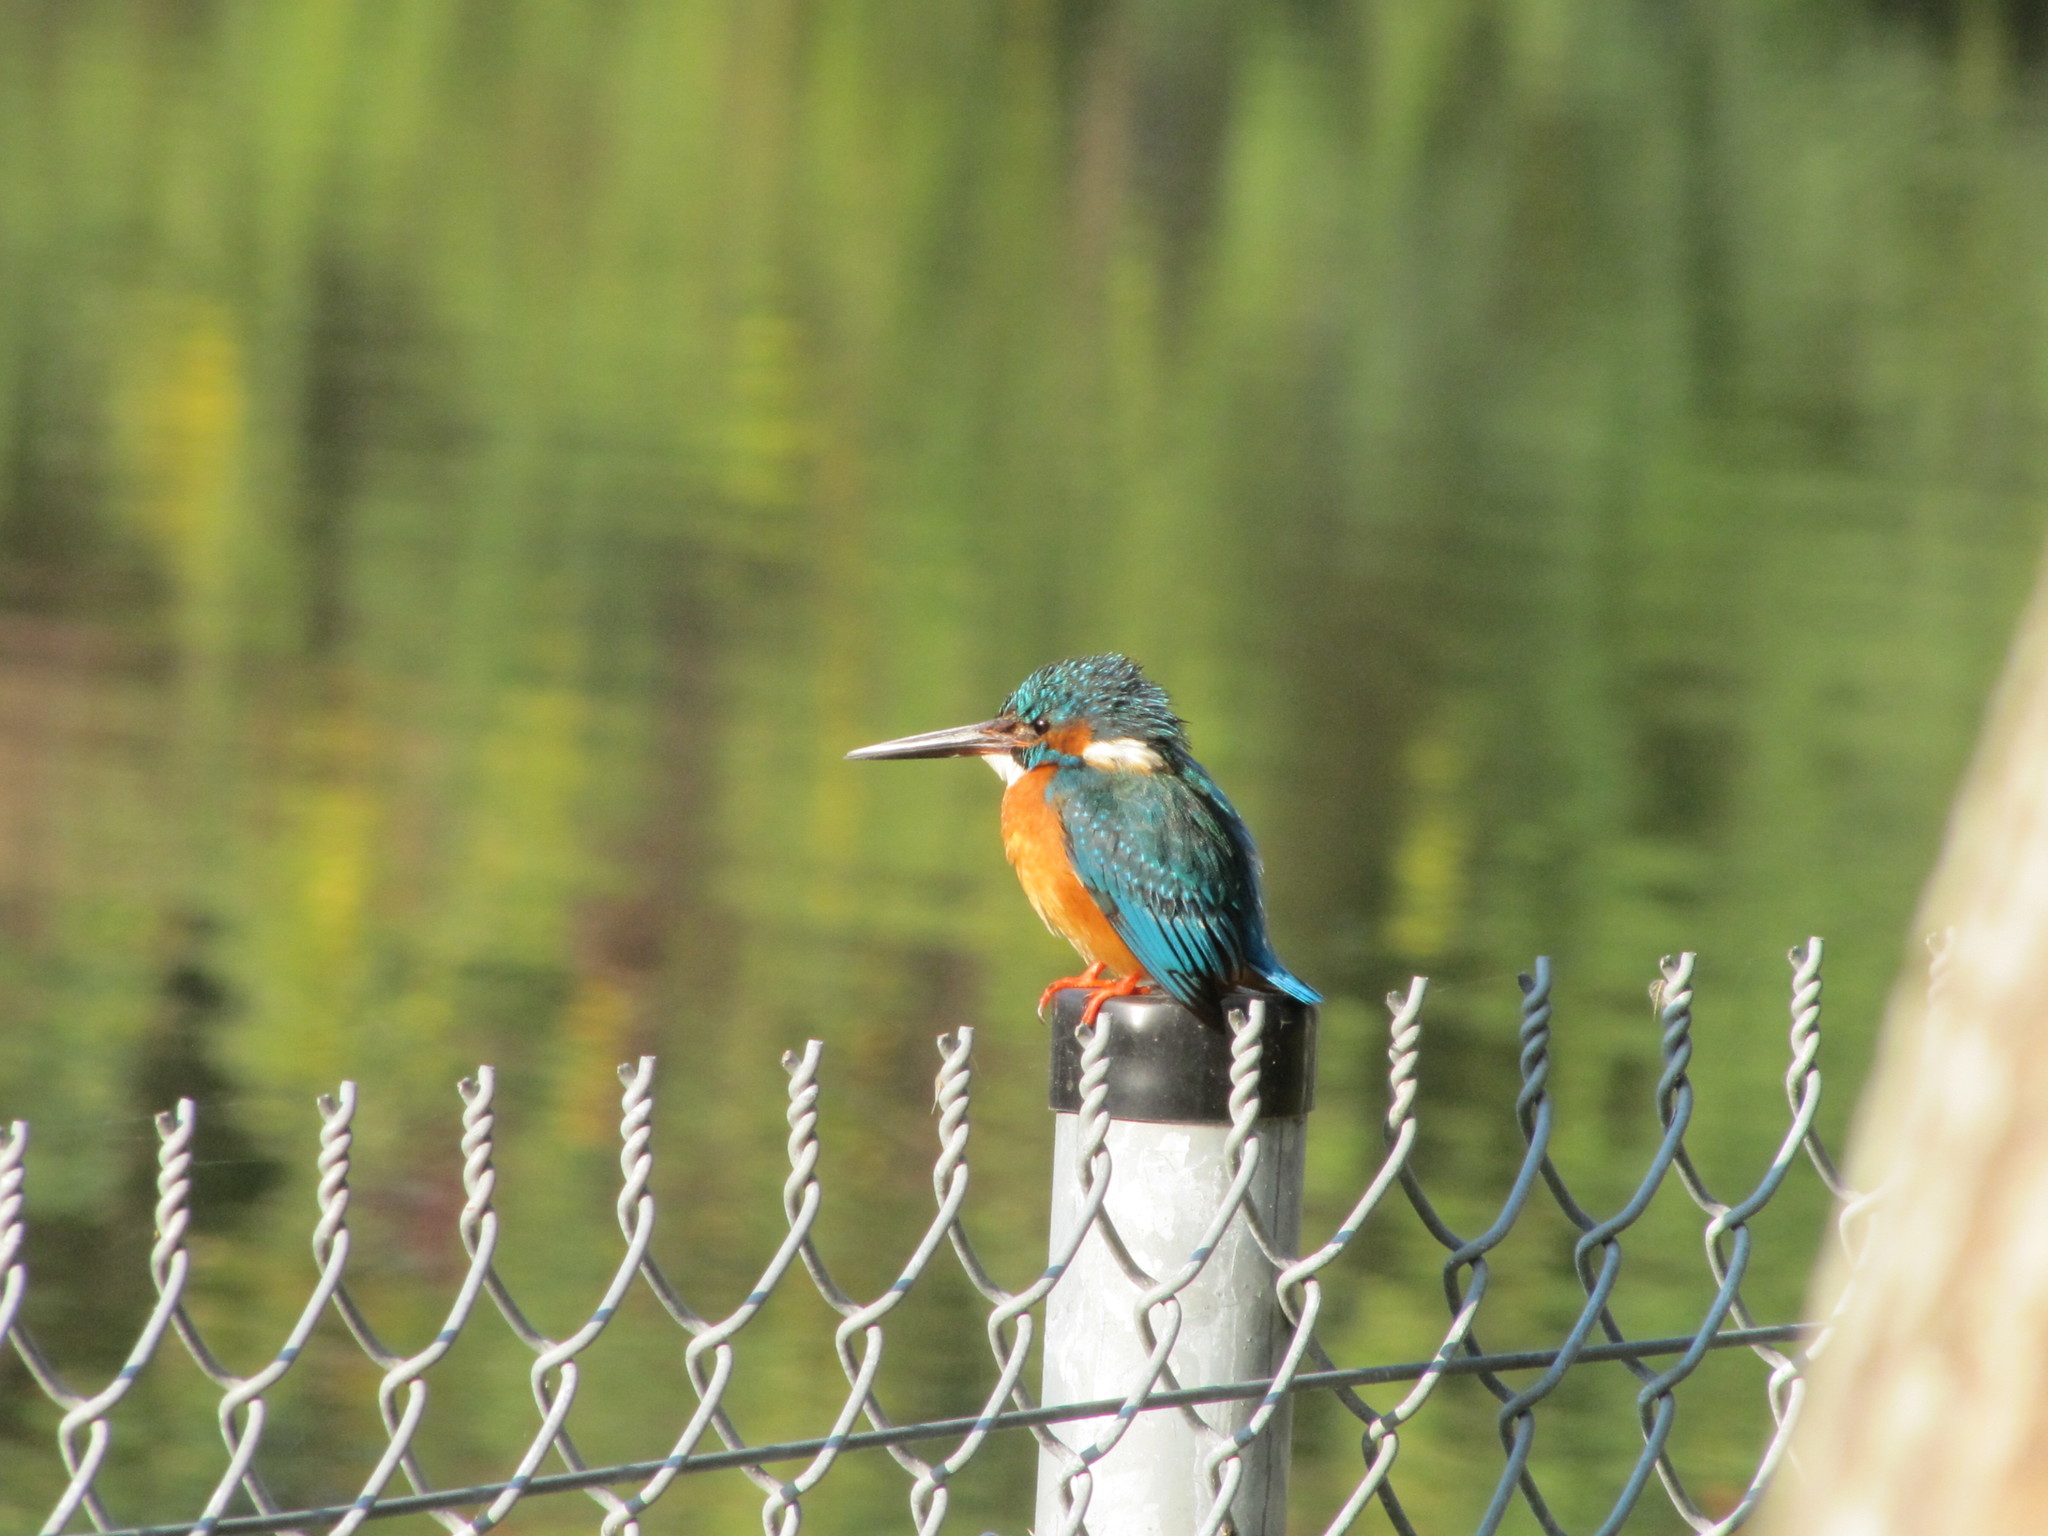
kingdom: Animalia
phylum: Chordata
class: Aves
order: Coraciiformes
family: Alcedinidae
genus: Alcedo
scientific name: Alcedo atthis
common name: Common kingfisher
